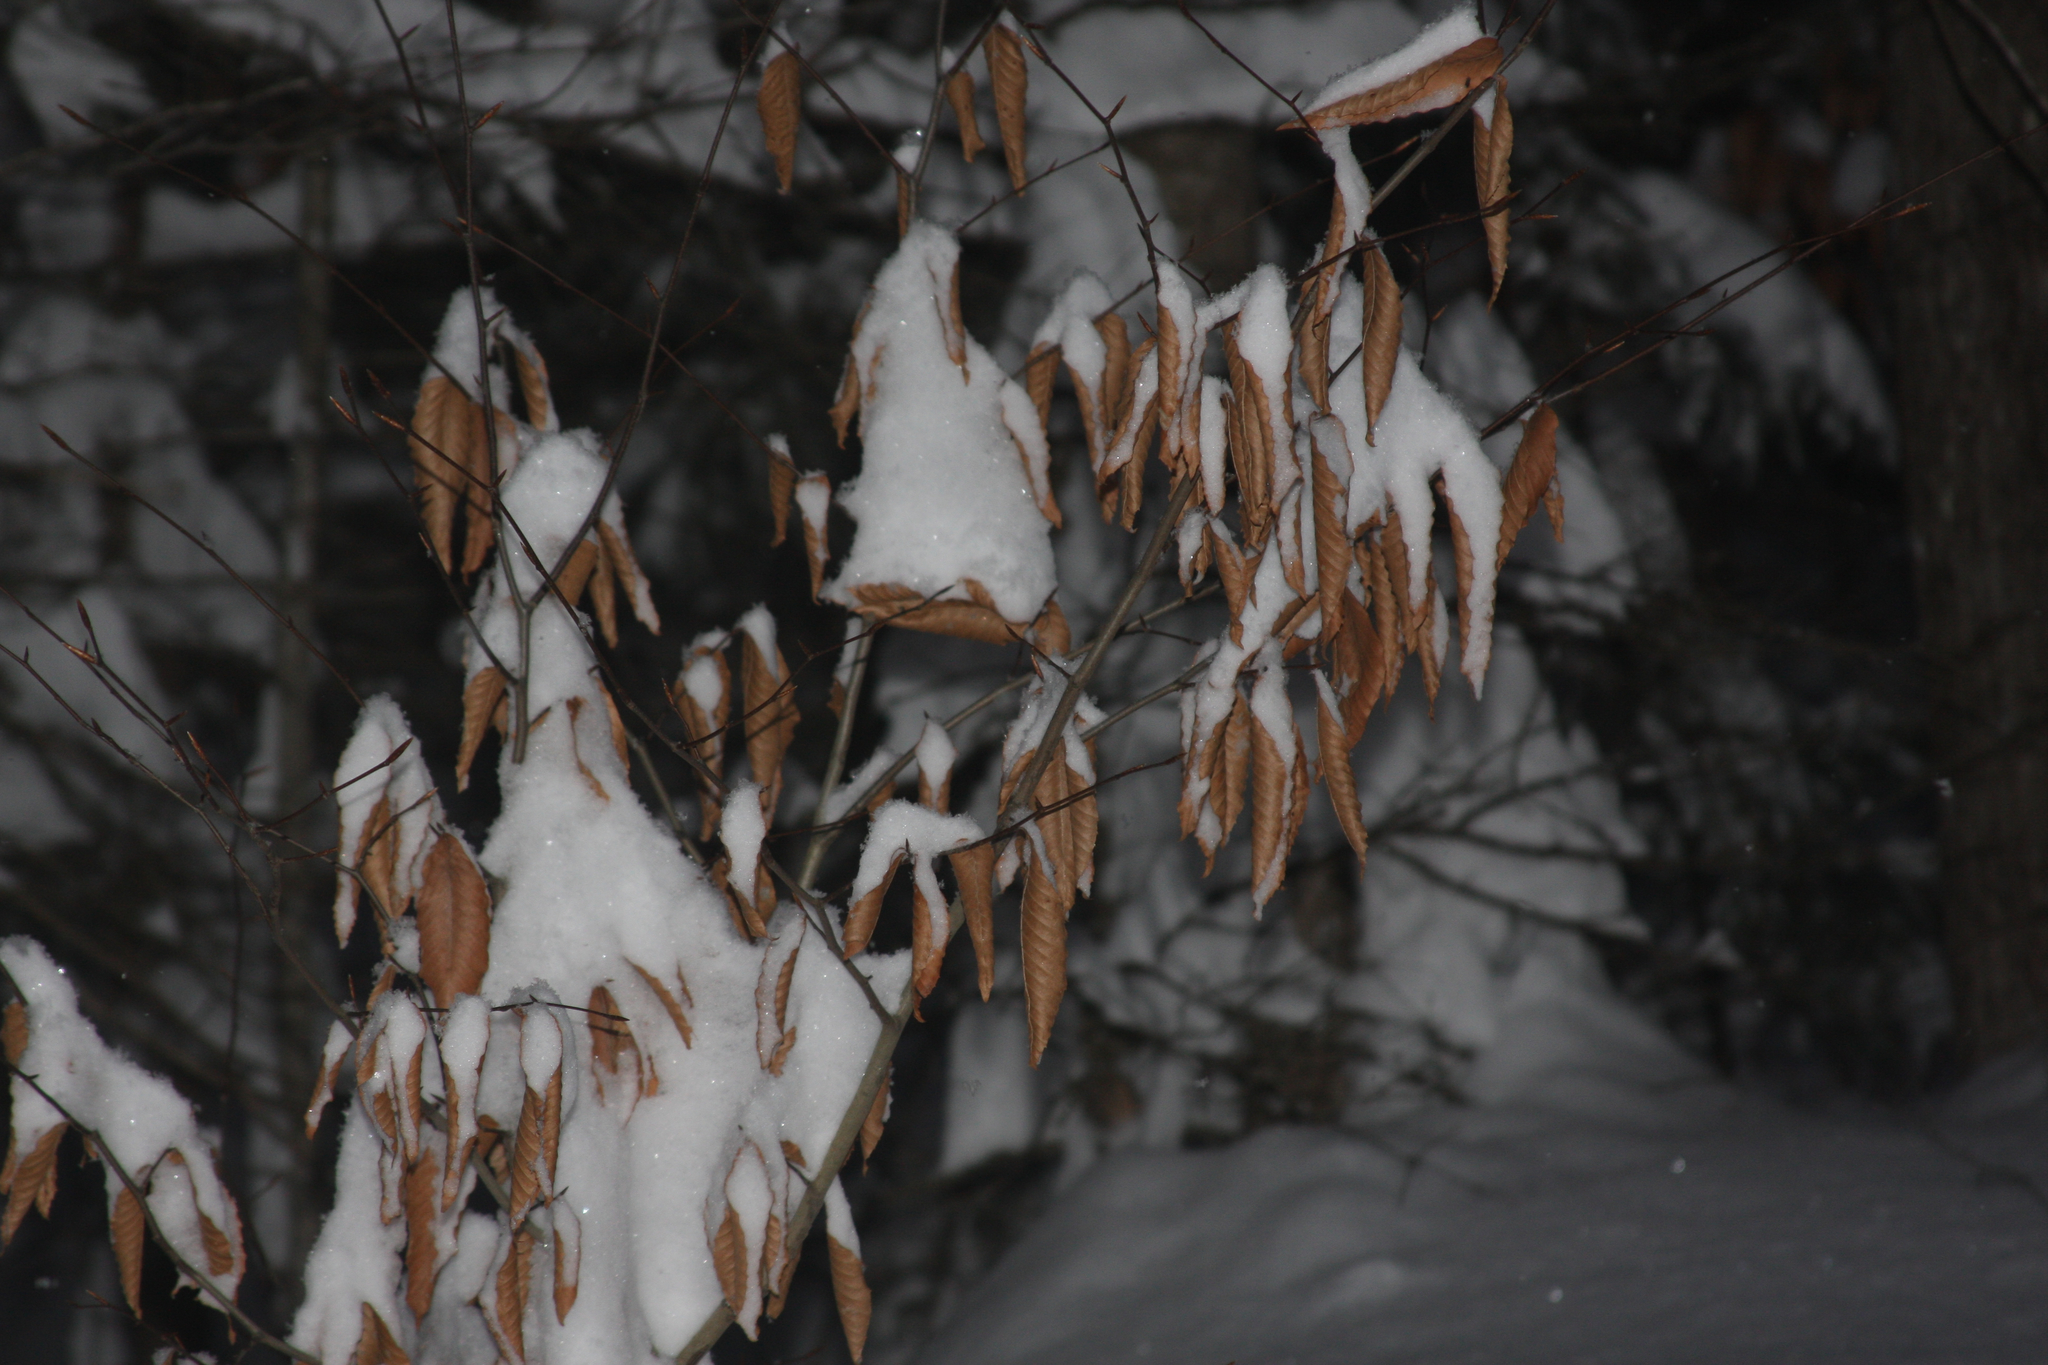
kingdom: Plantae
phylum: Tracheophyta
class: Magnoliopsida
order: Fagales
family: Fagaceae
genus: Fagus
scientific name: Fagus grandifolia
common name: American beech
